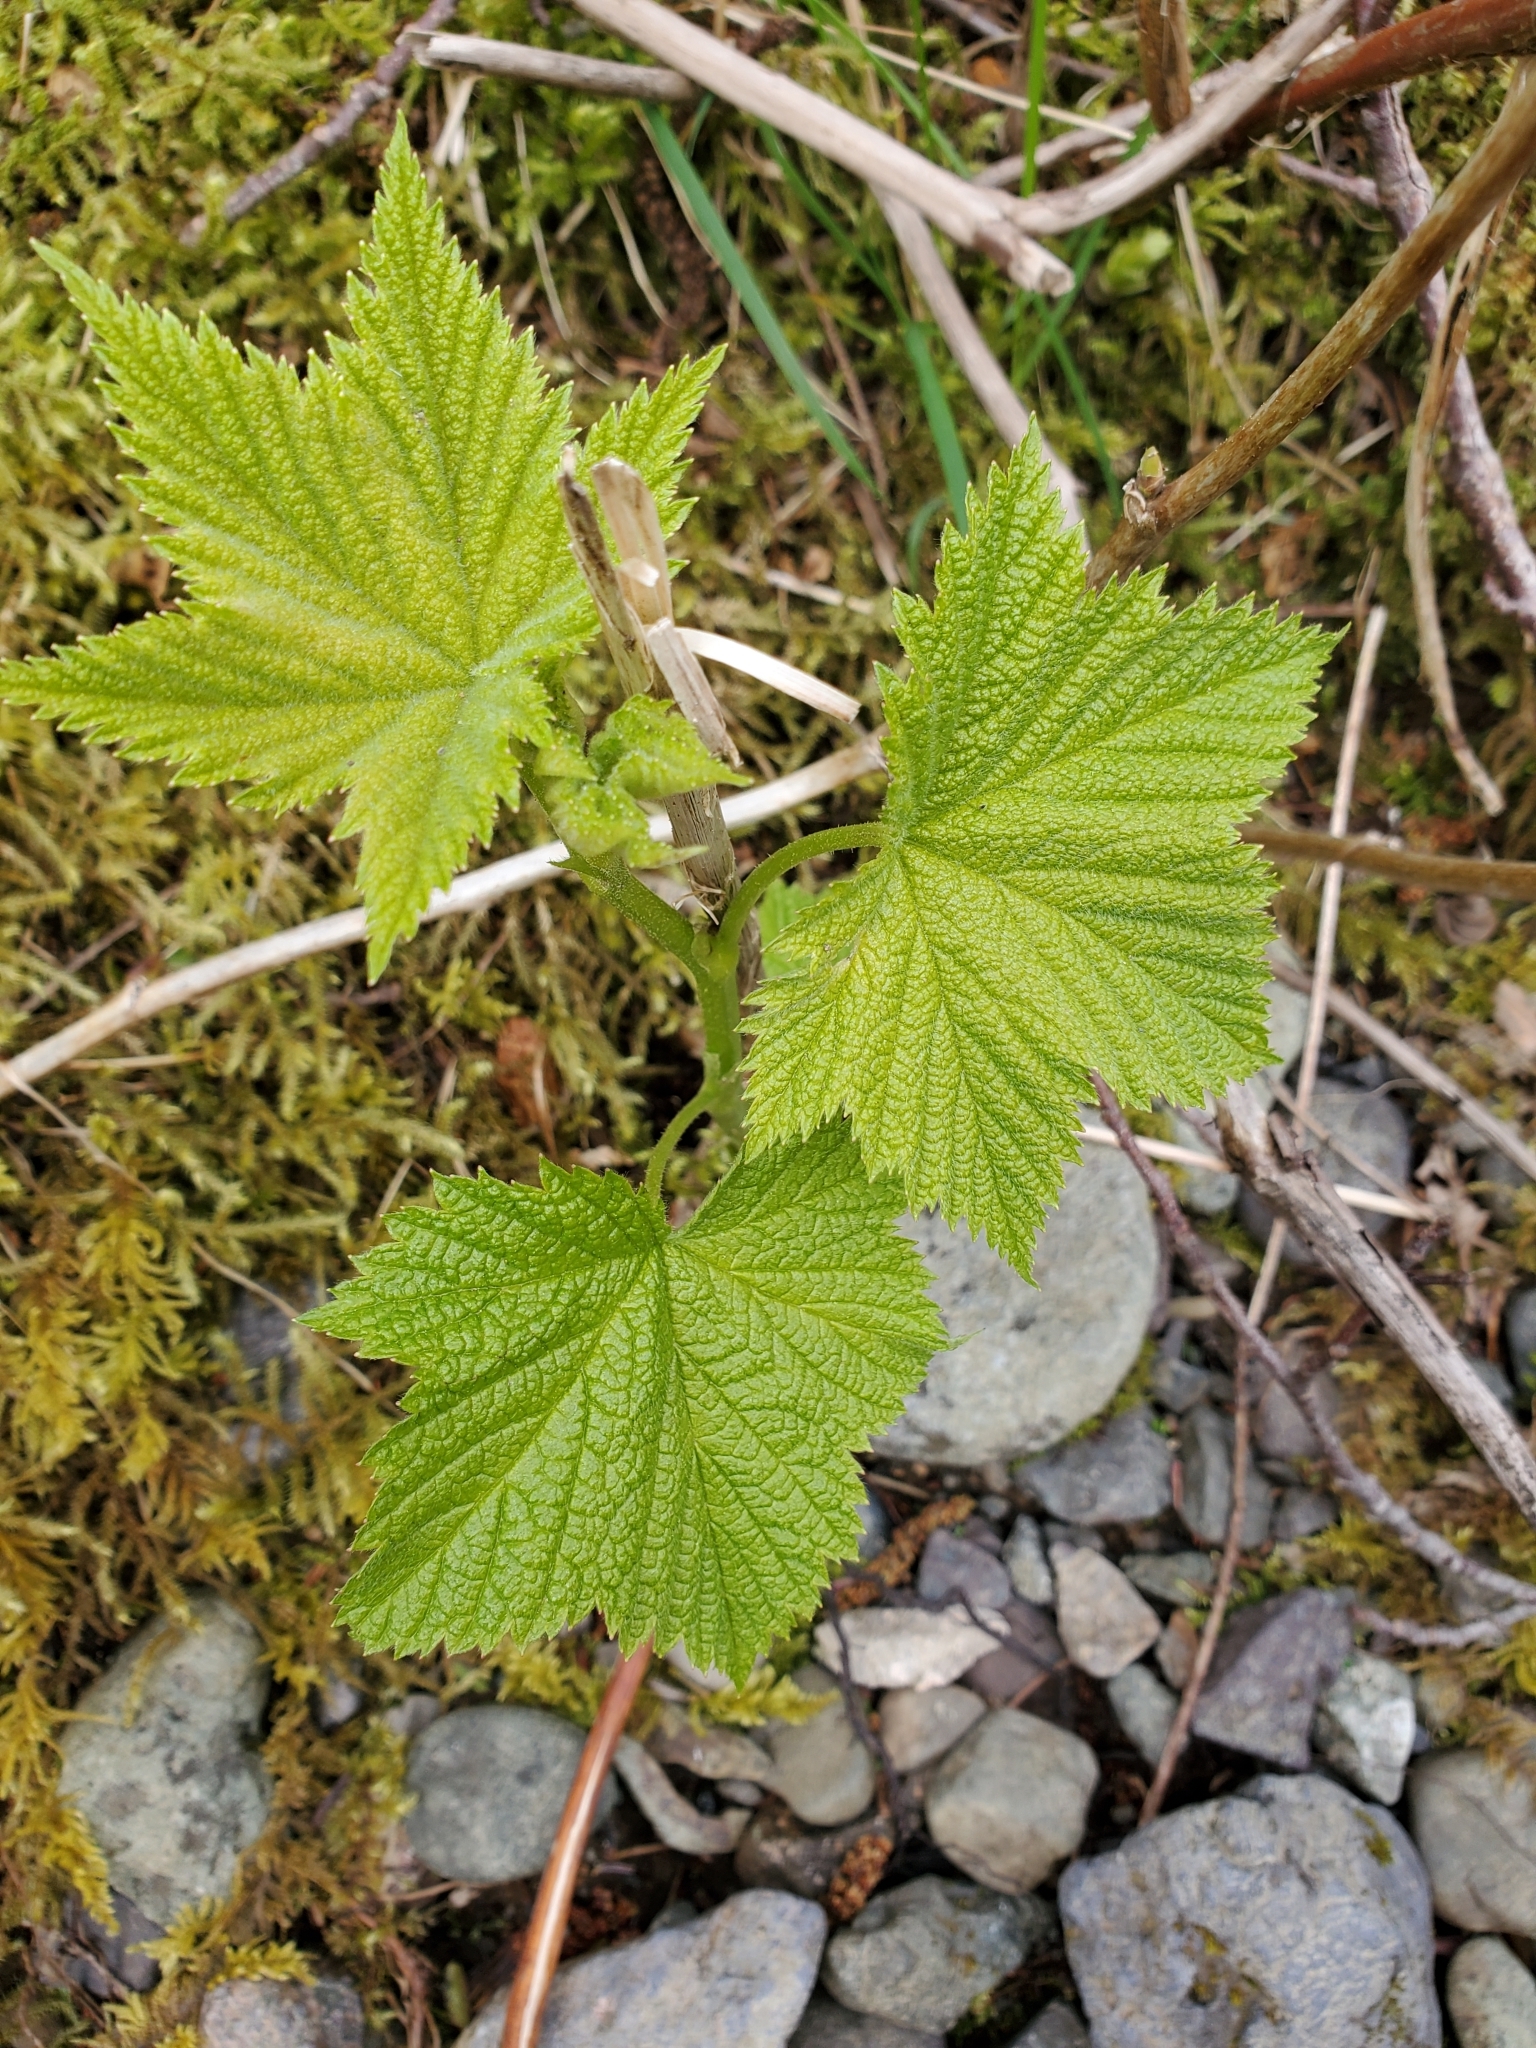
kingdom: Plantae
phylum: Tracheophyta
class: Magnoliopsida
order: Rosales
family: Rosaceae
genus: Rubus
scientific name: Rubus parviflorus
